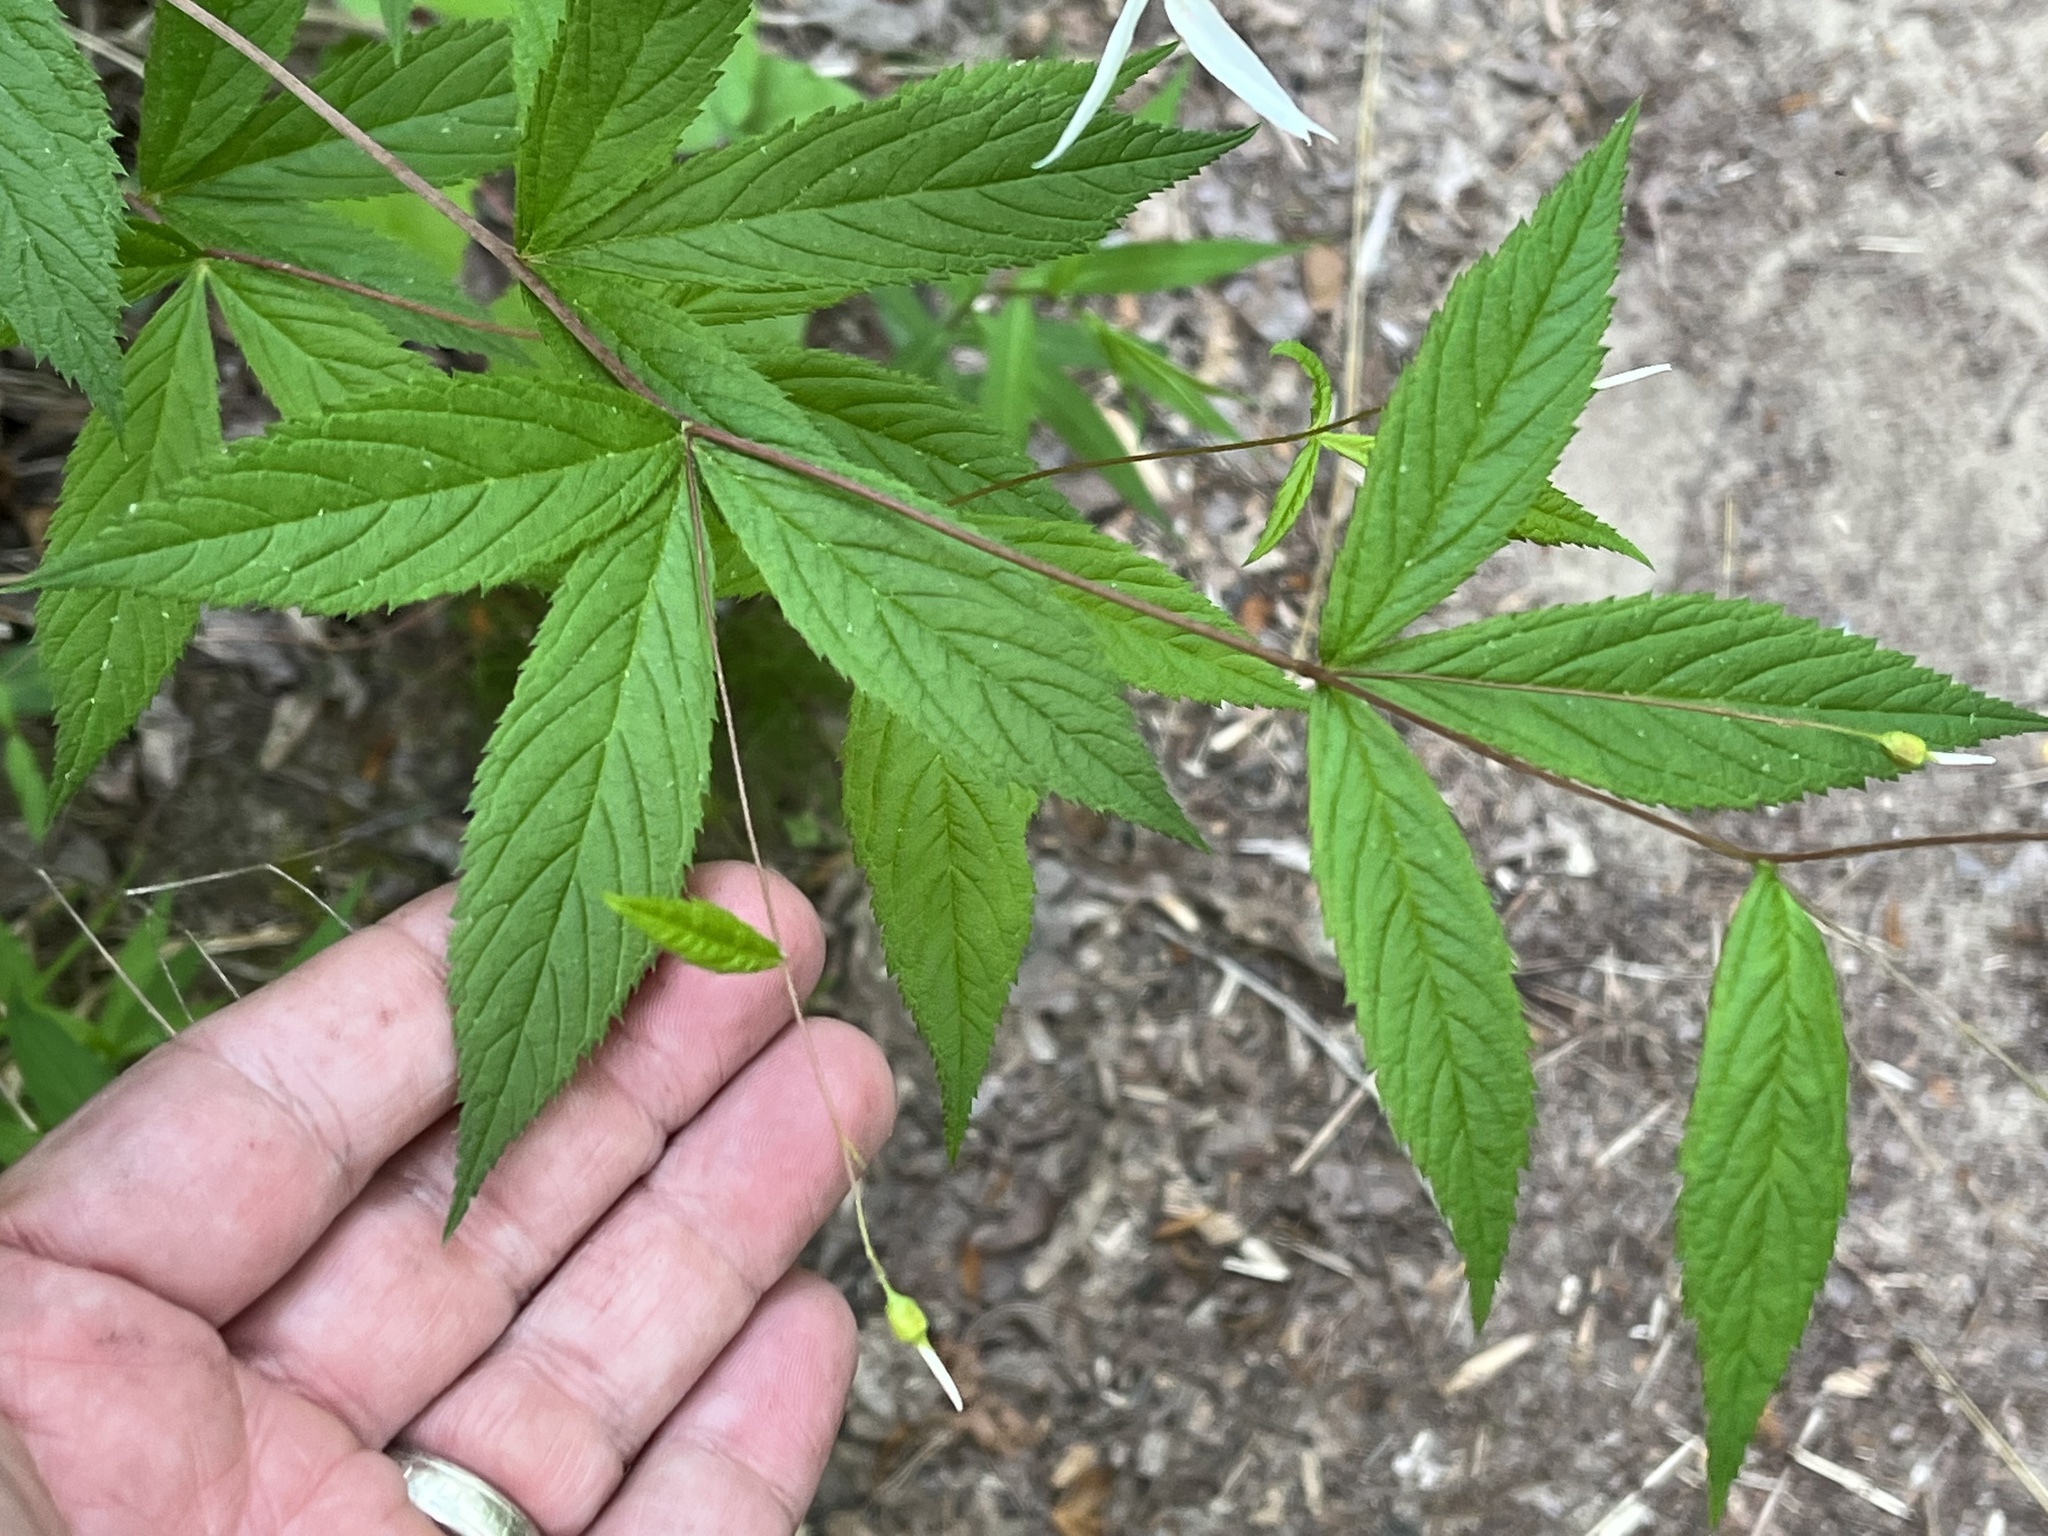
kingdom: Plantae
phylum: Tracheophyta
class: Magnoliopsida
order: Rosales
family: Rosaceae
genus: Gillenia
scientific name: Gillenia trifoliata
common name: Bowman's-root
